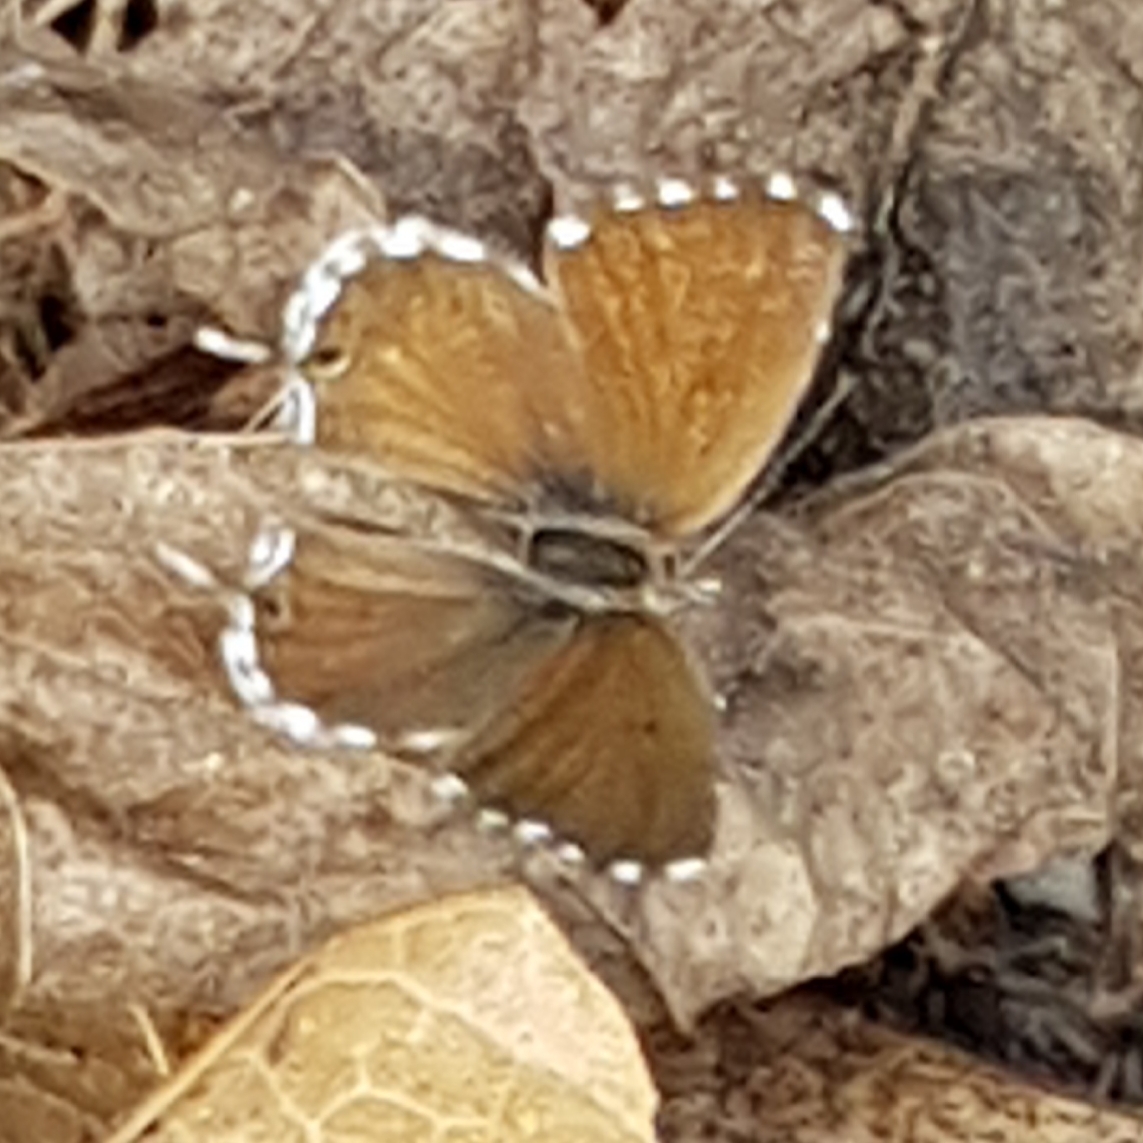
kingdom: Animalia
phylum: Arthropoda
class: Insecta
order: Lepidoptera
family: Lycaenidae
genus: Cacyreus
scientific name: Cacyreus marshalli
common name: Geranium bronze
